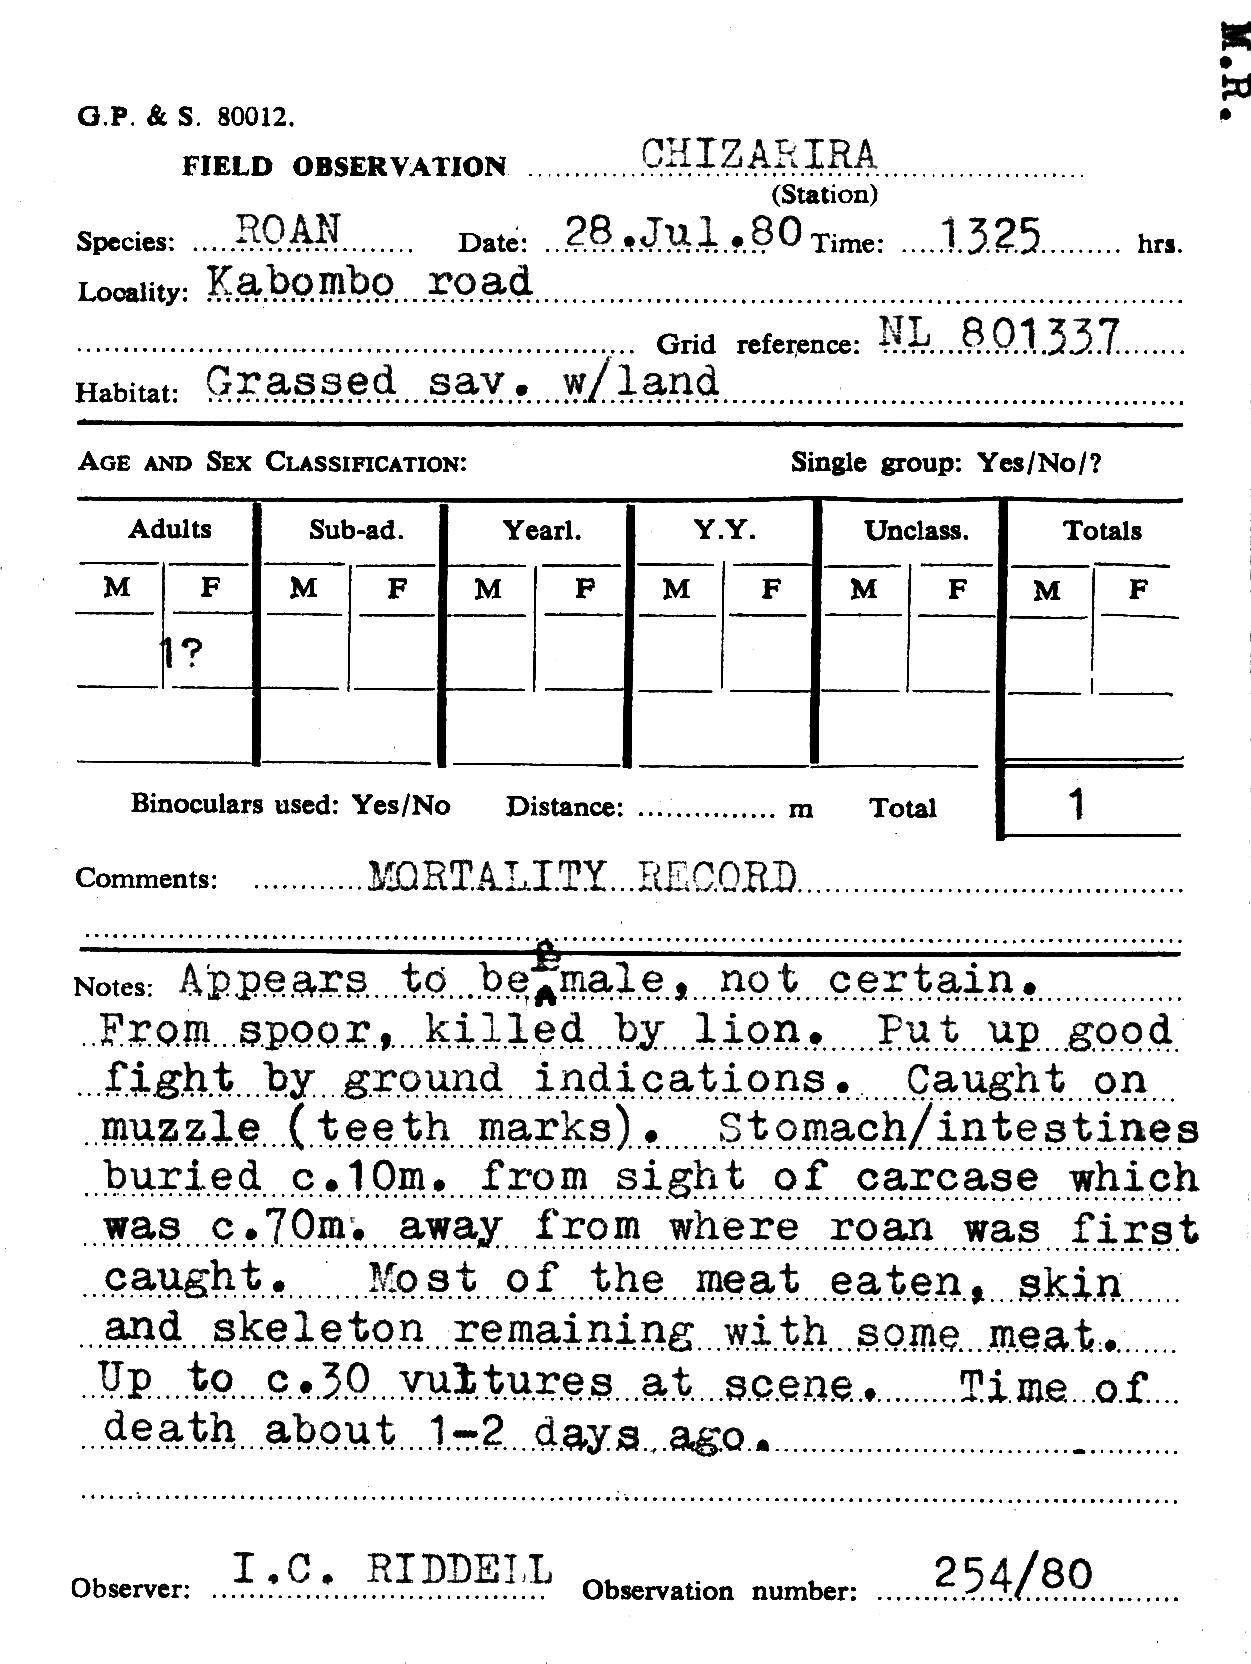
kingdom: Animalia
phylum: Chordata
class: Mammalia
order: Artiodactyla
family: Bovidae
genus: Hippotragus
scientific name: Hippotragus equinus
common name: Roan antelope
